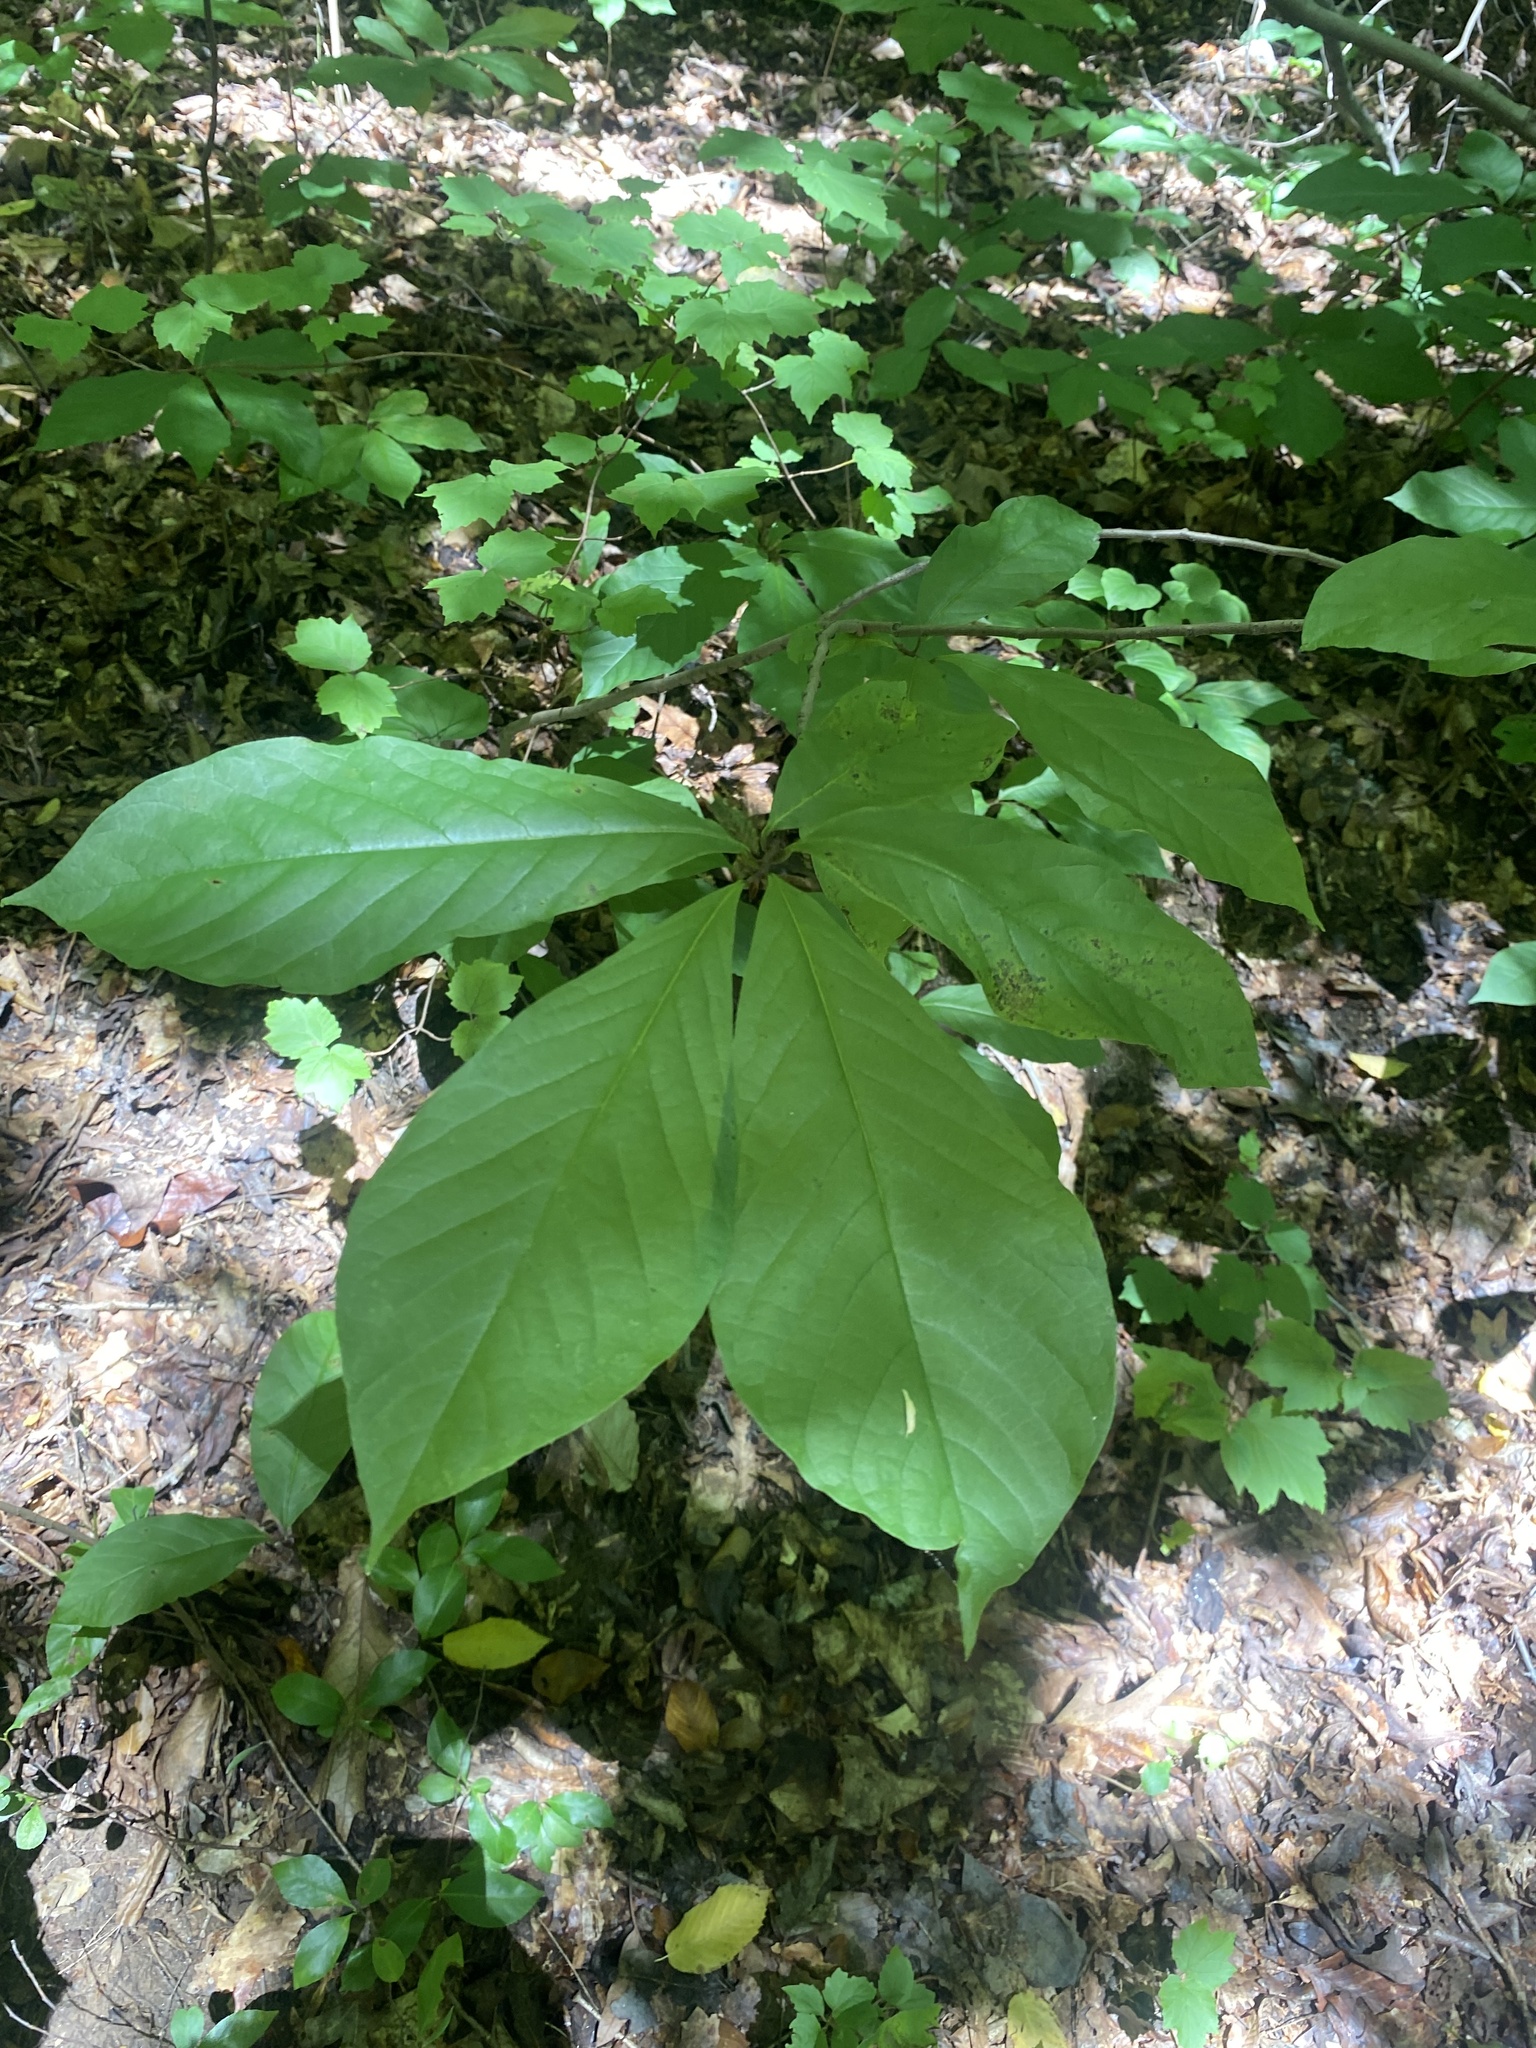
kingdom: Plantae
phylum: Tracheophyta
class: Magnoliopsida
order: Magnoliales
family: Annonaceae
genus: Asimina
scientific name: Asimina triloba
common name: Dog-banana
